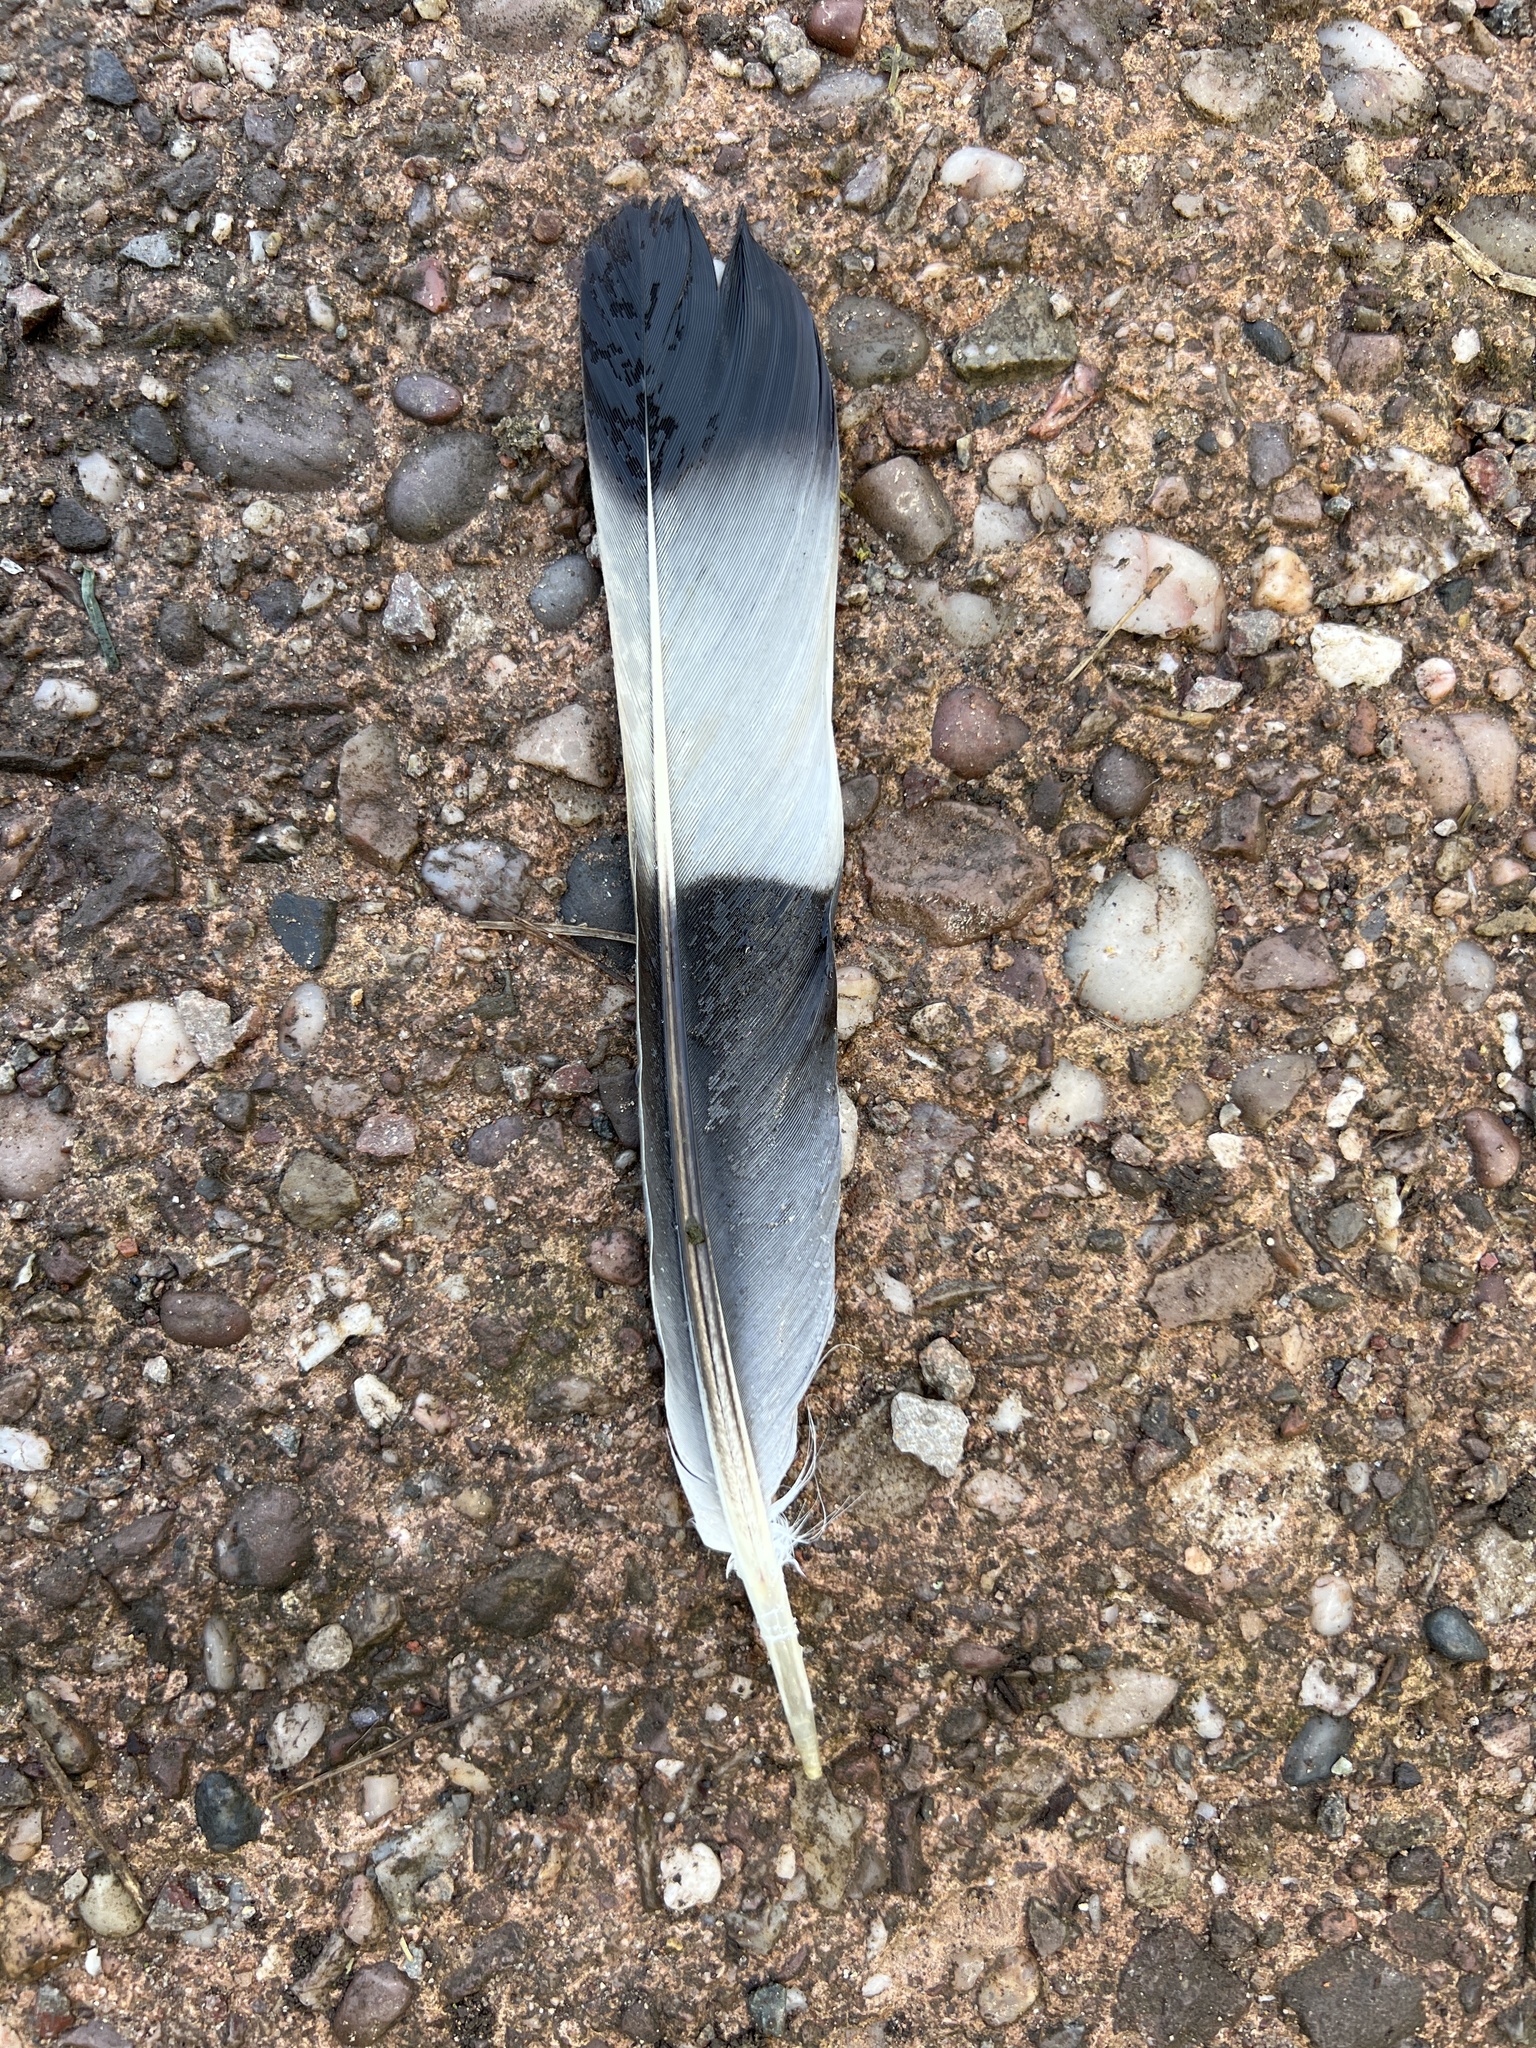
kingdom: Animalia
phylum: Chordata
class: Aves
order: Columbiformes
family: Columbidae
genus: Columba
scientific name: Columba palumbus
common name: Common wood pigeon
